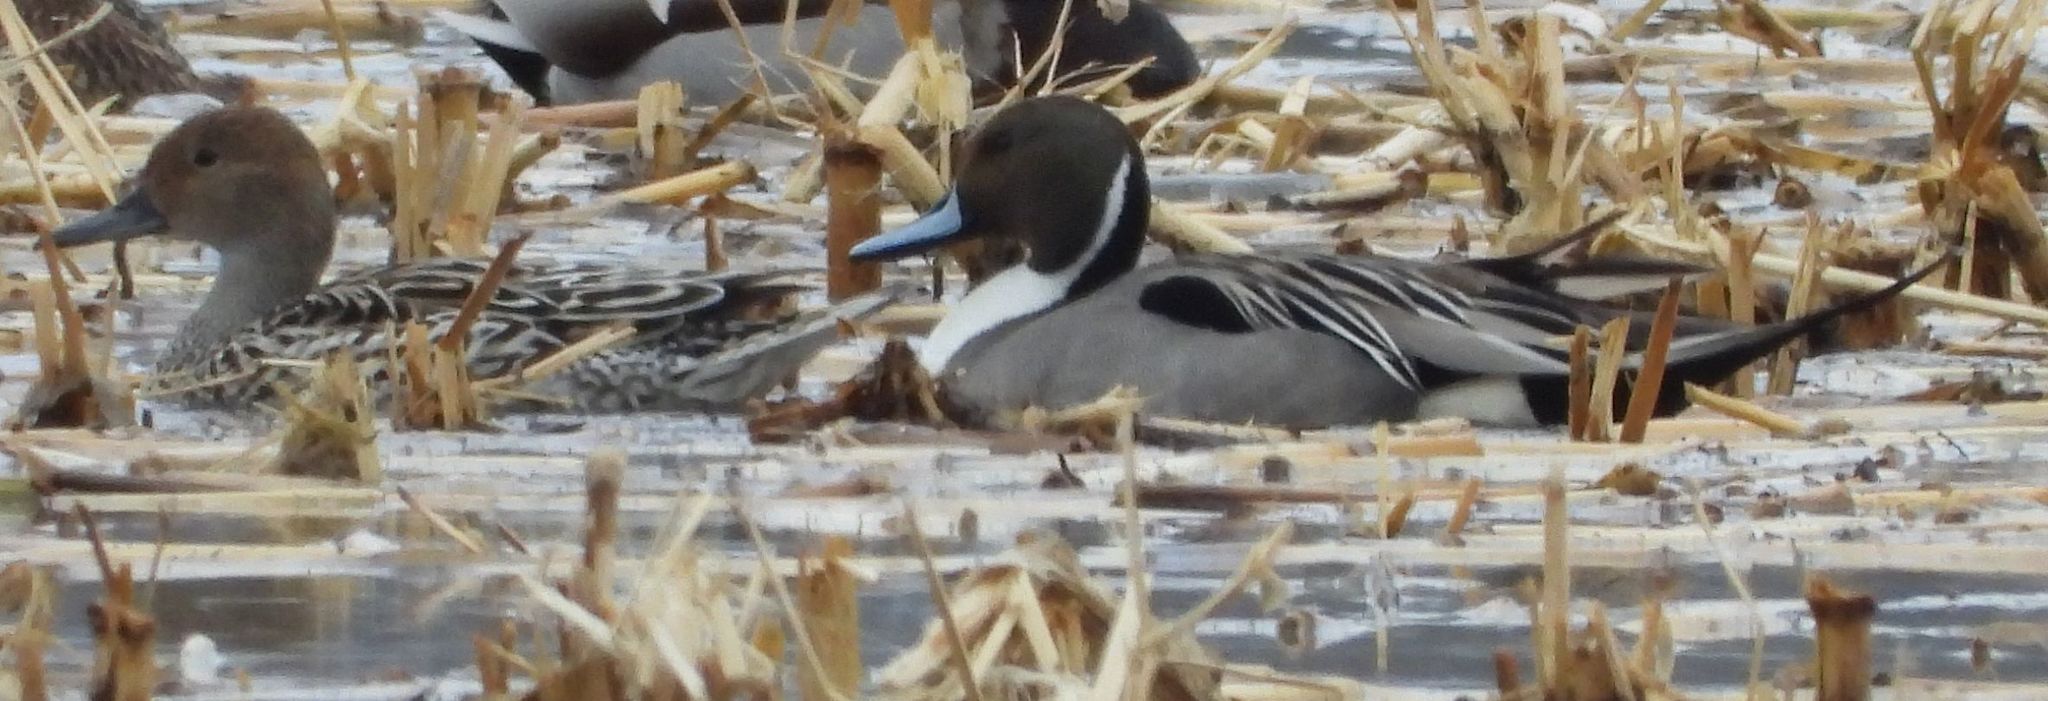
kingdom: Animalia
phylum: Chordata
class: Aves
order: Anseriformes
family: Anatidae
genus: Anas
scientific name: Anas acuta
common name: Northern pintail
